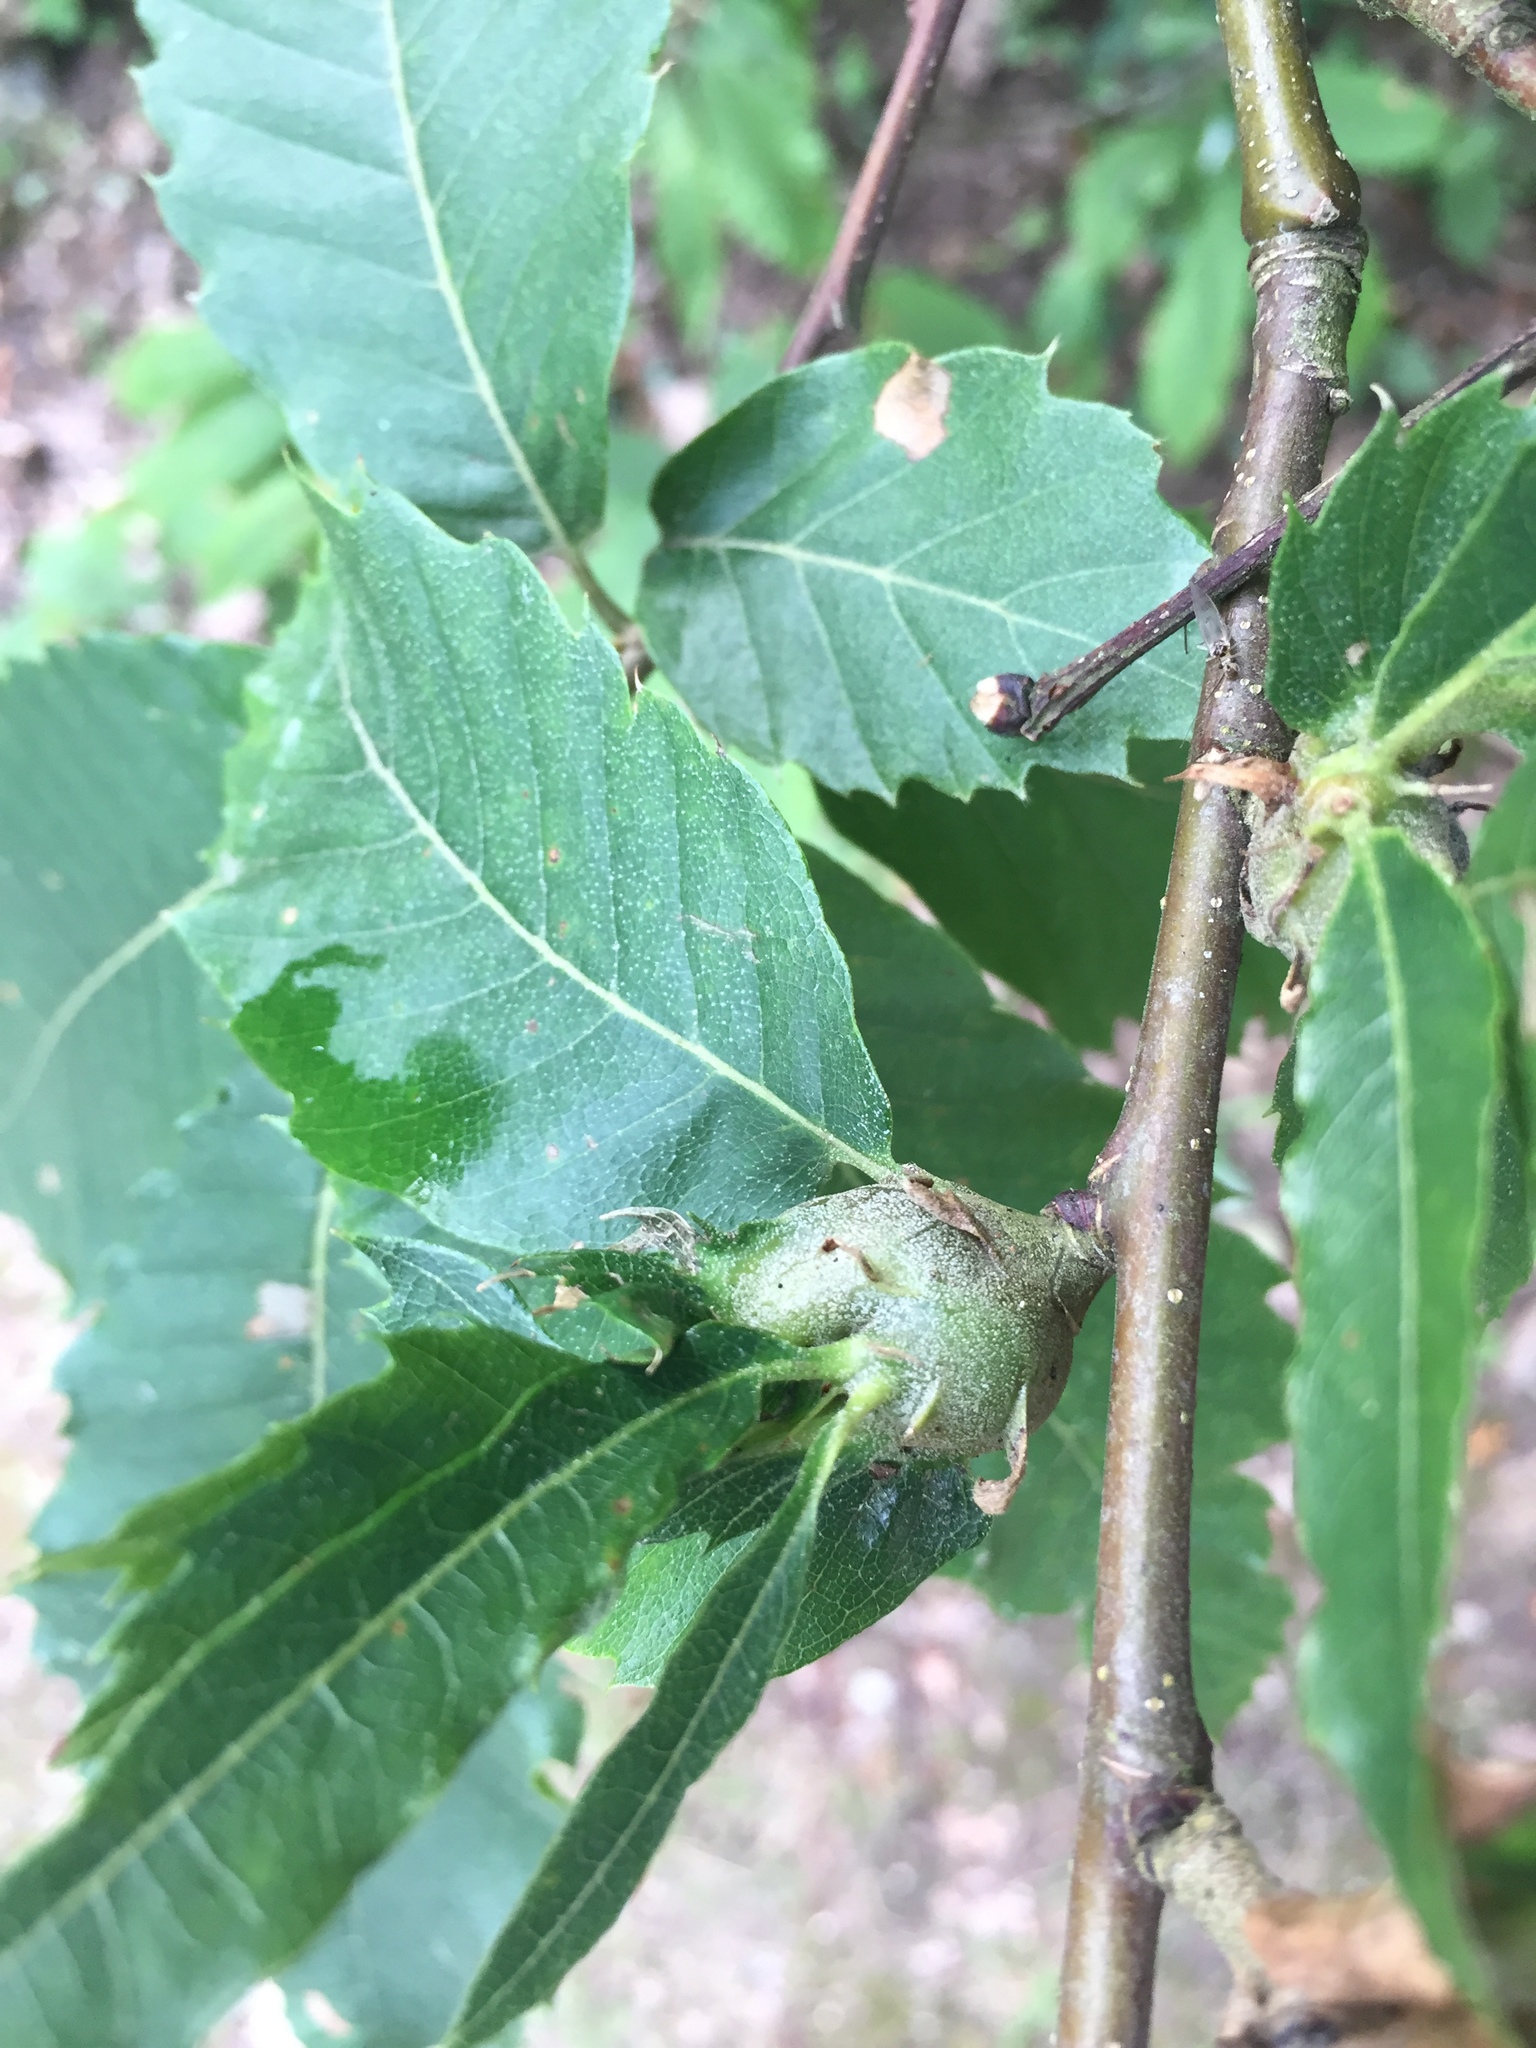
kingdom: Animalia
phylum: Arthropoda
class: Insecta
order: Hymenoptera
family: Cynipidae
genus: Dryocosmus
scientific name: Dryocosmus kuriphilus
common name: Asian chestnut gall wasp
